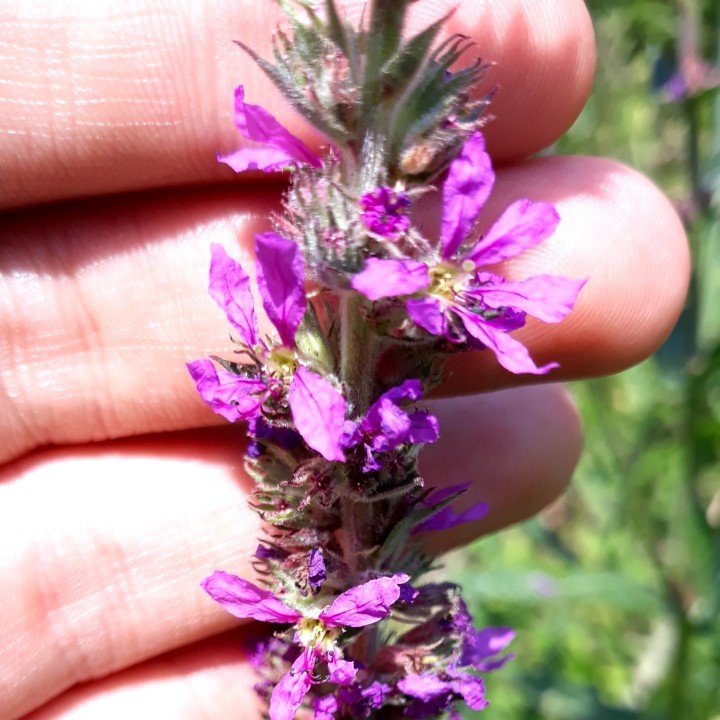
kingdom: Plantae
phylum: Tracheophyta
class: Magnoliopsida
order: Myrtales
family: Lythraceae
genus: Lythrum
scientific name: Lythrum salicaria
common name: Purple loosestrife
